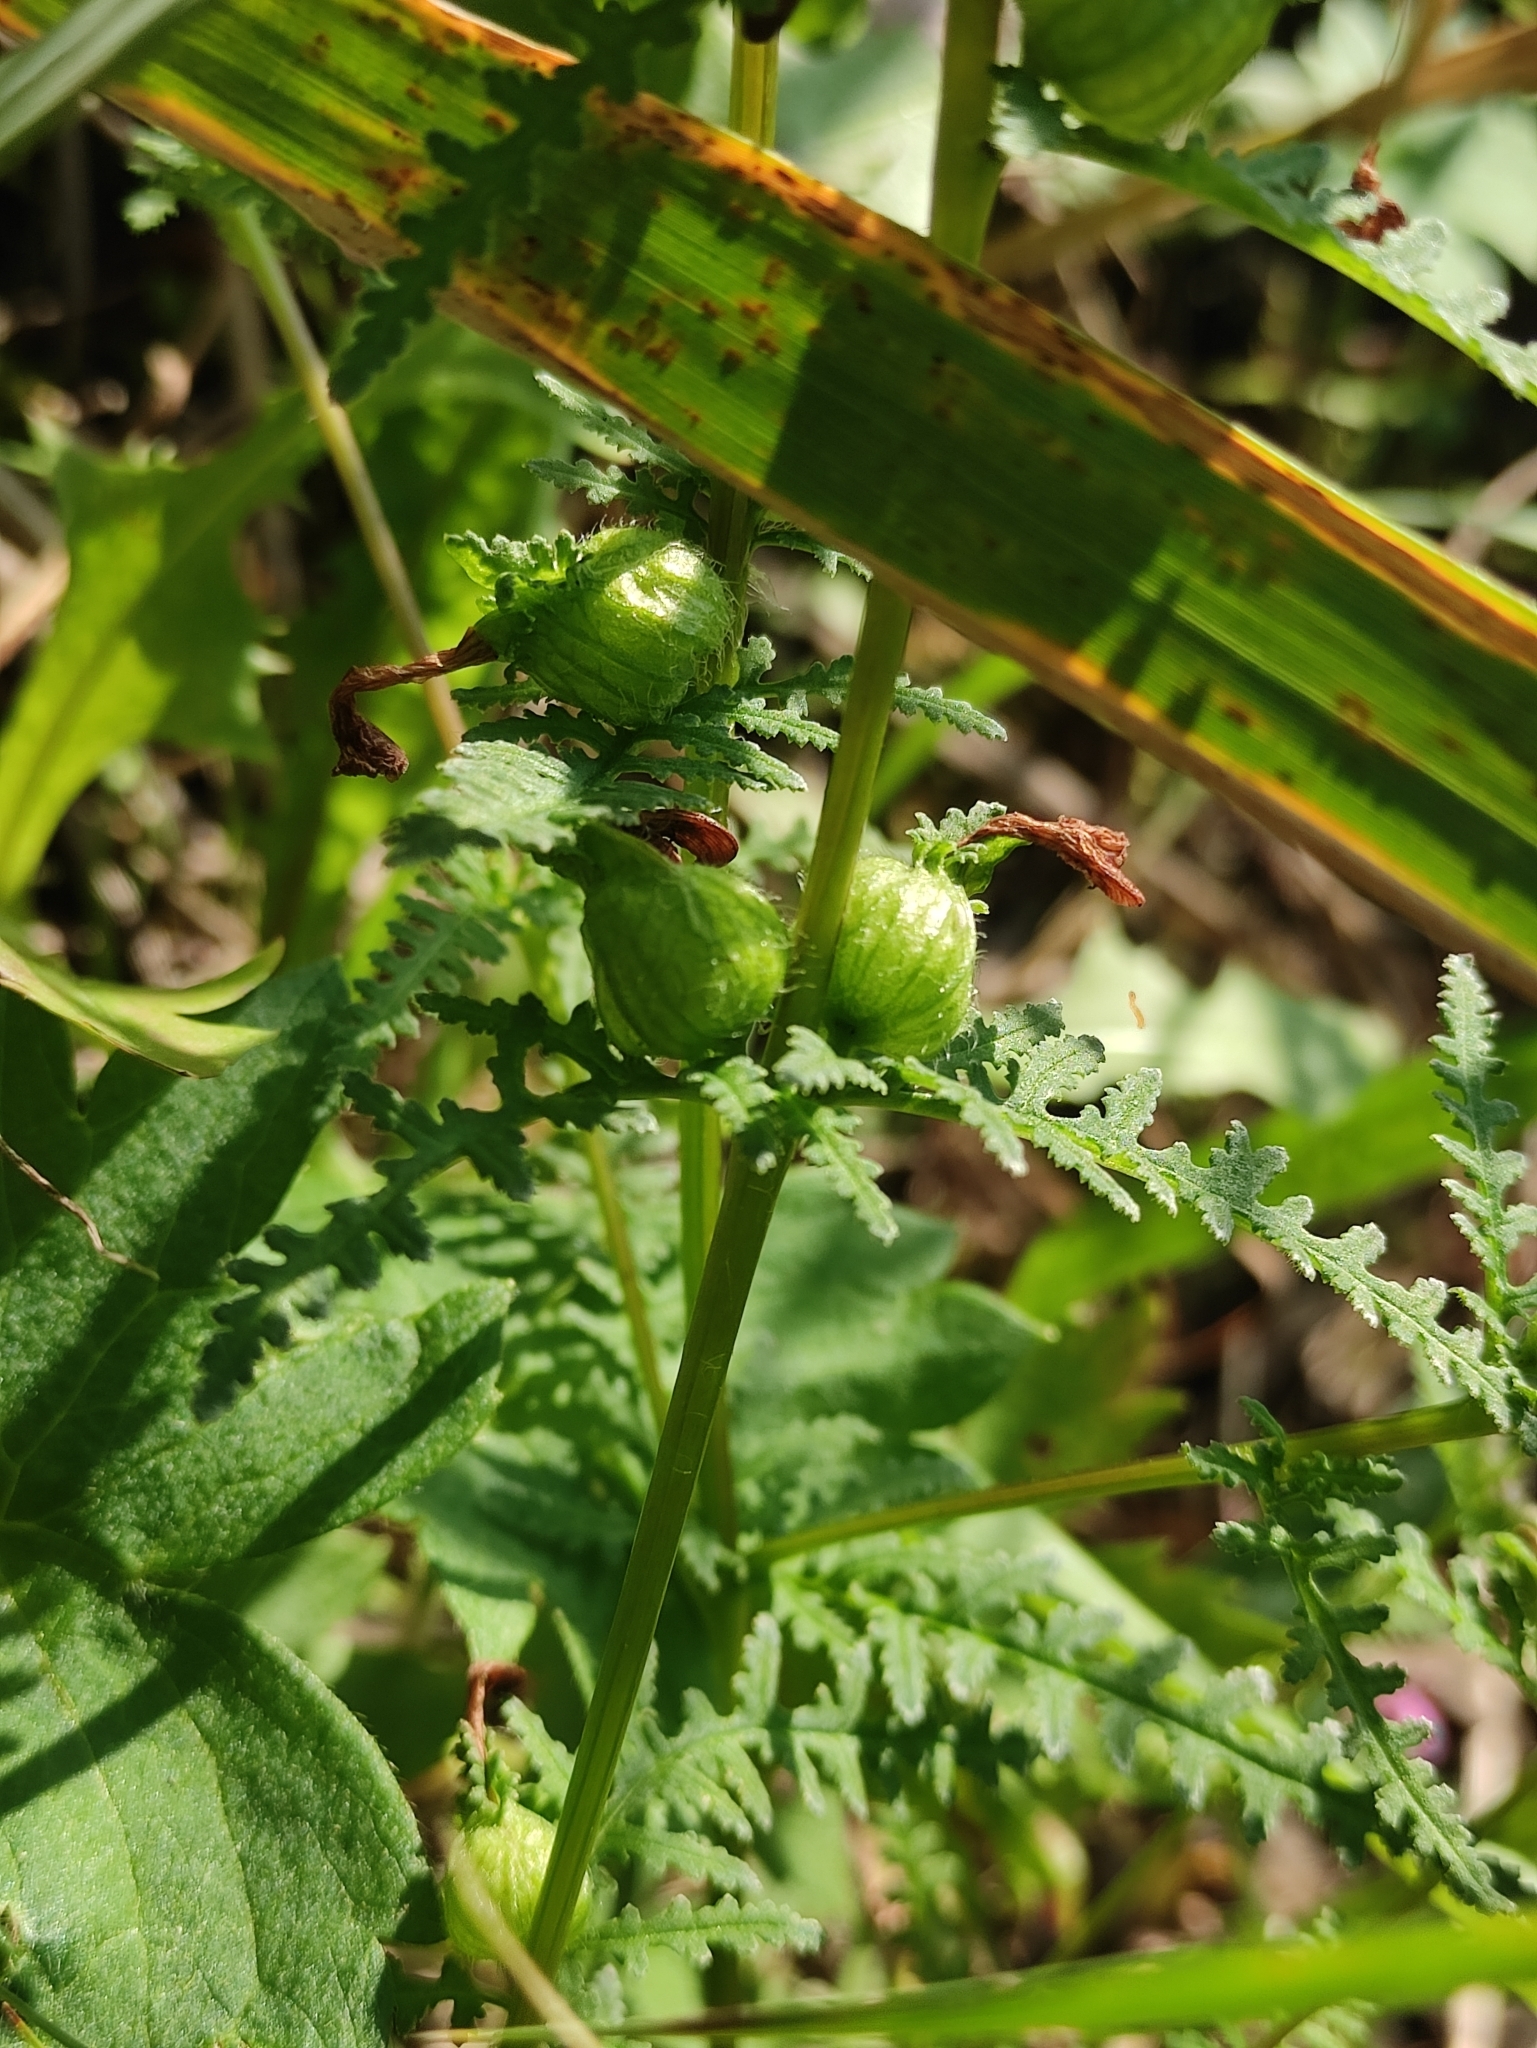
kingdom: Plantae
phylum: Tracheophyta
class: Magnoliopsida
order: Lamiales
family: Orobanchaceae
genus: Pedicularis
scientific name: Pedicularis karoi
